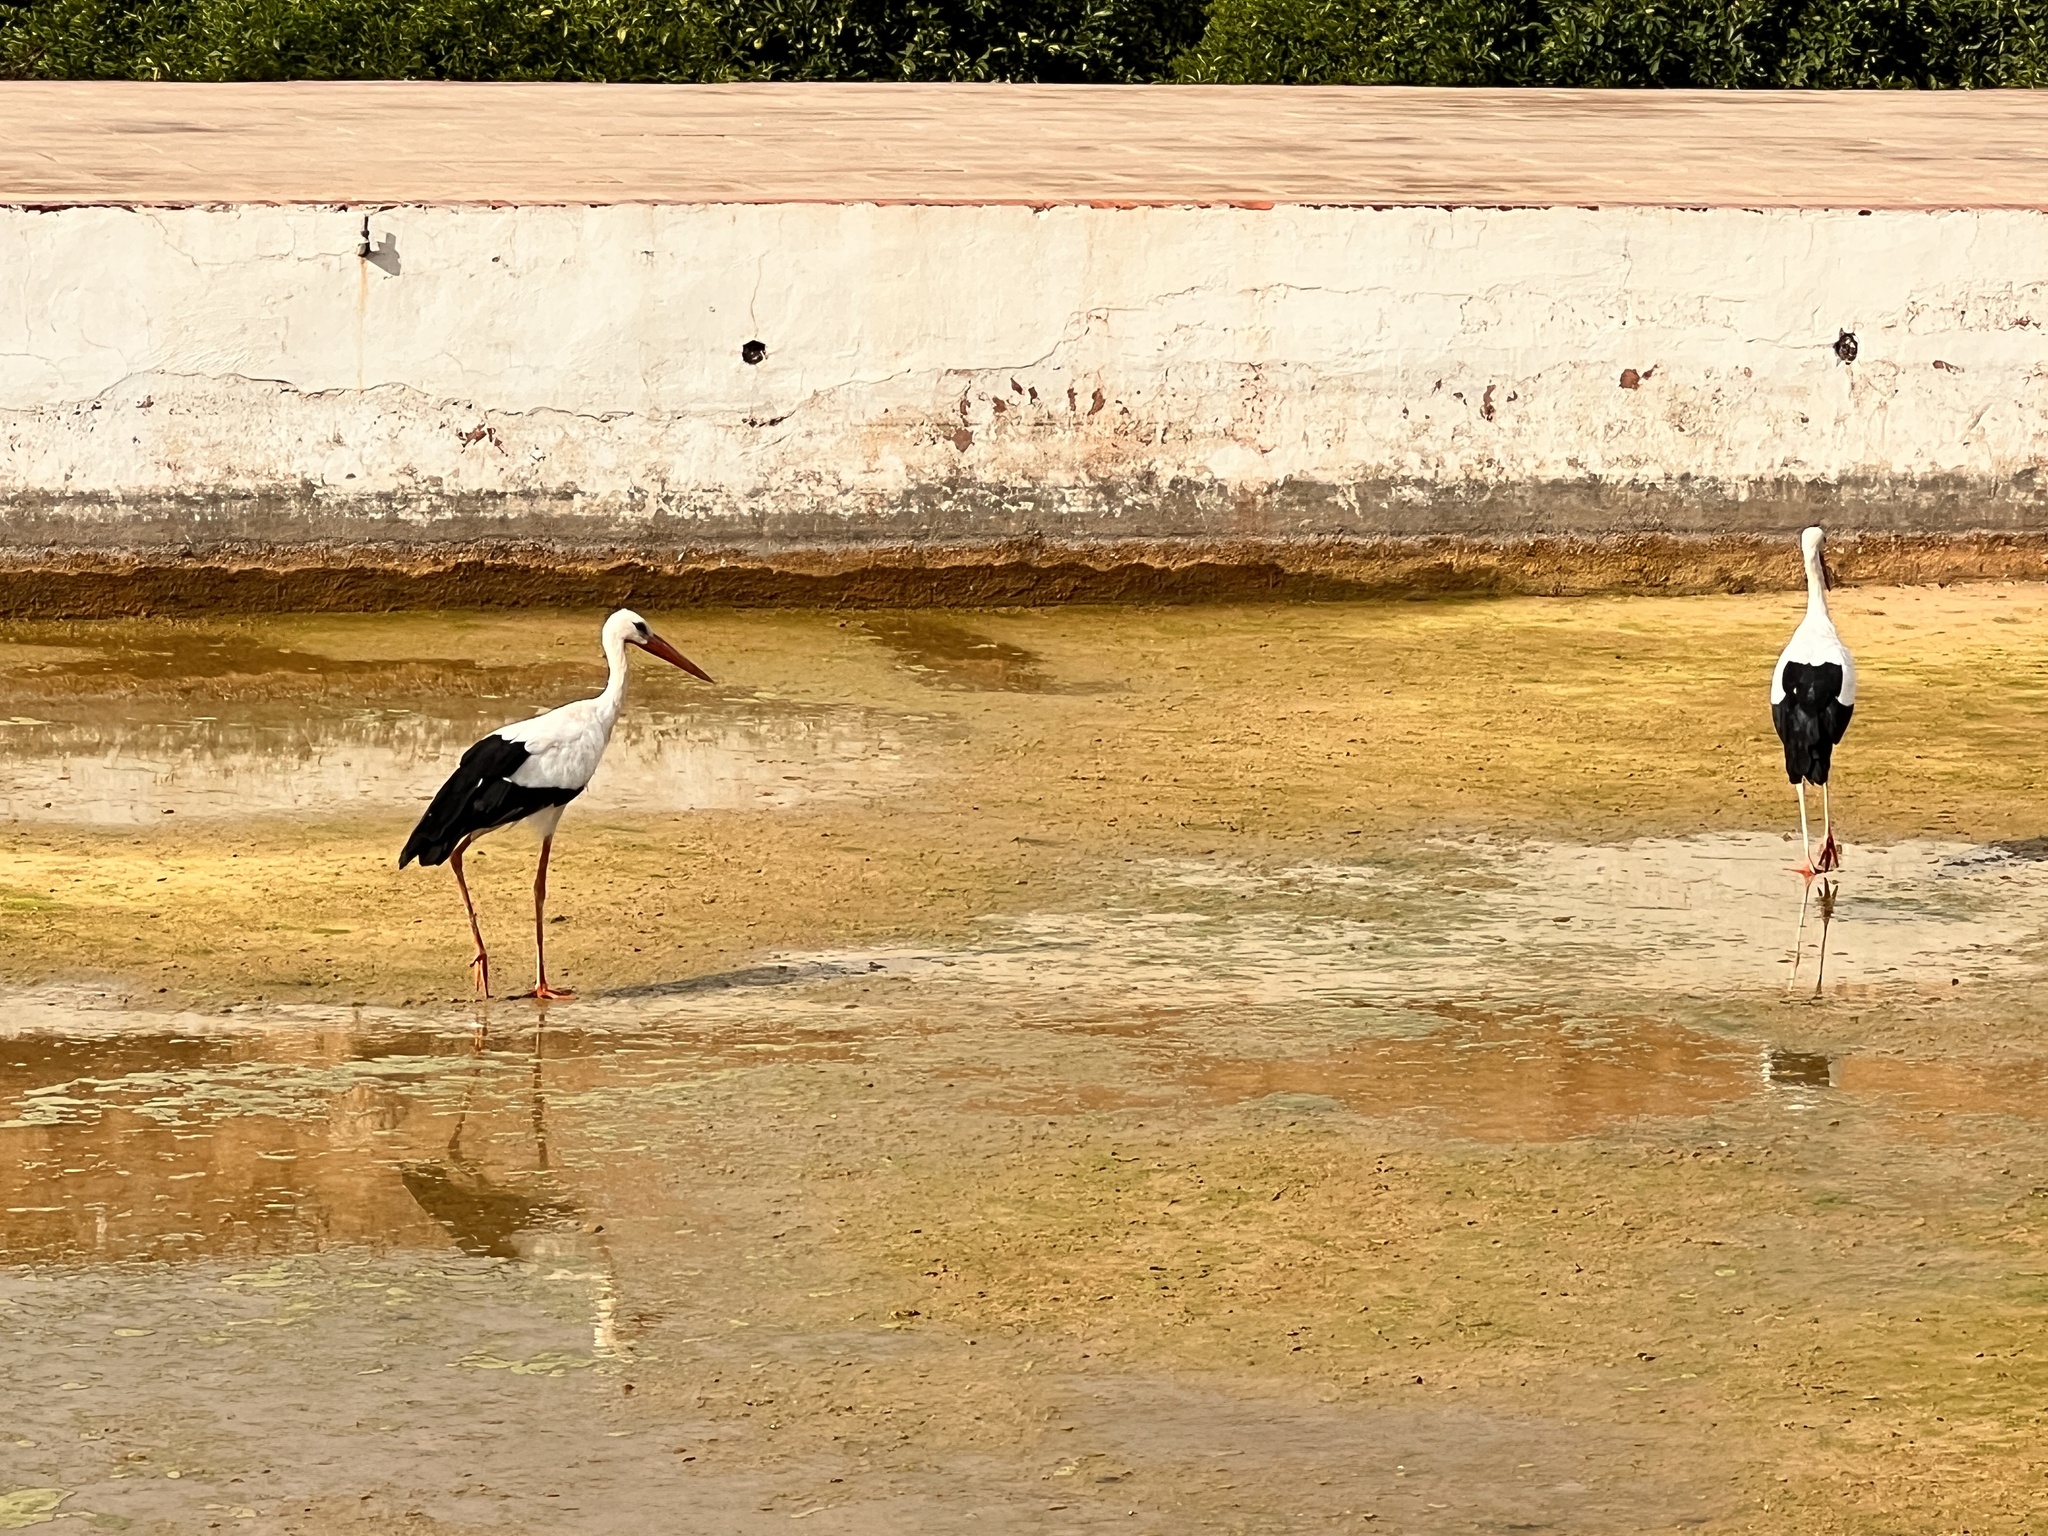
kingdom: Animalia
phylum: Chordata
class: Aves
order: Ciconiiformes
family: Ciconiidae
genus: Ciconia
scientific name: Ciconia ciconia
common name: White stork
